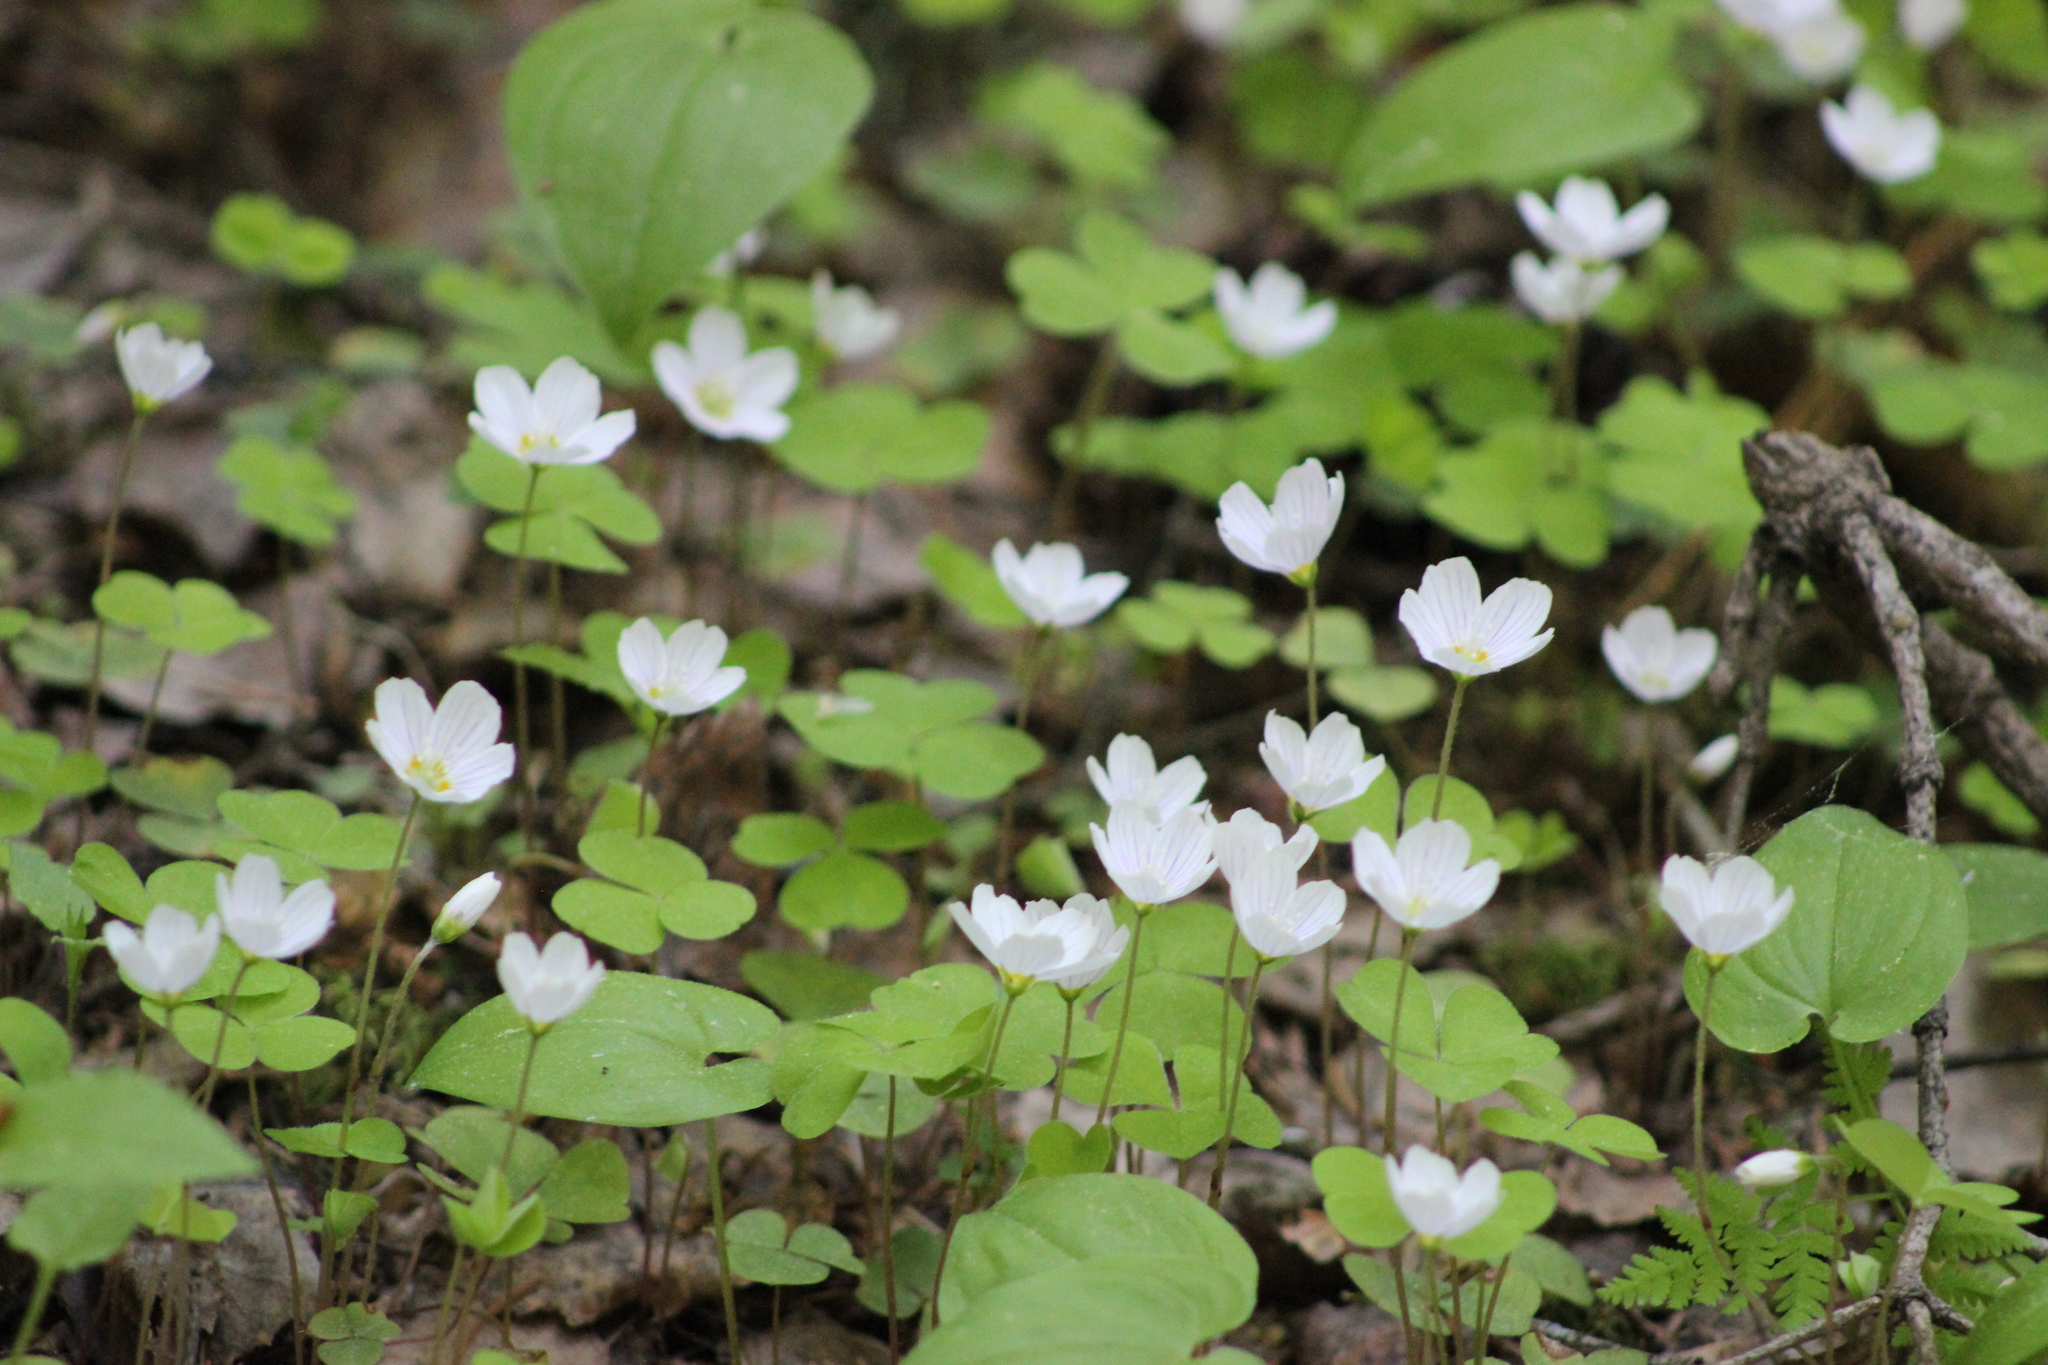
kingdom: Plantae
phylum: Tracheophyta
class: Magnoliopsida
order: Oxalidales
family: Oxalidaceae
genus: Oxalis
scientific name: Oxalis acetosella
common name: Wood-sorrel
